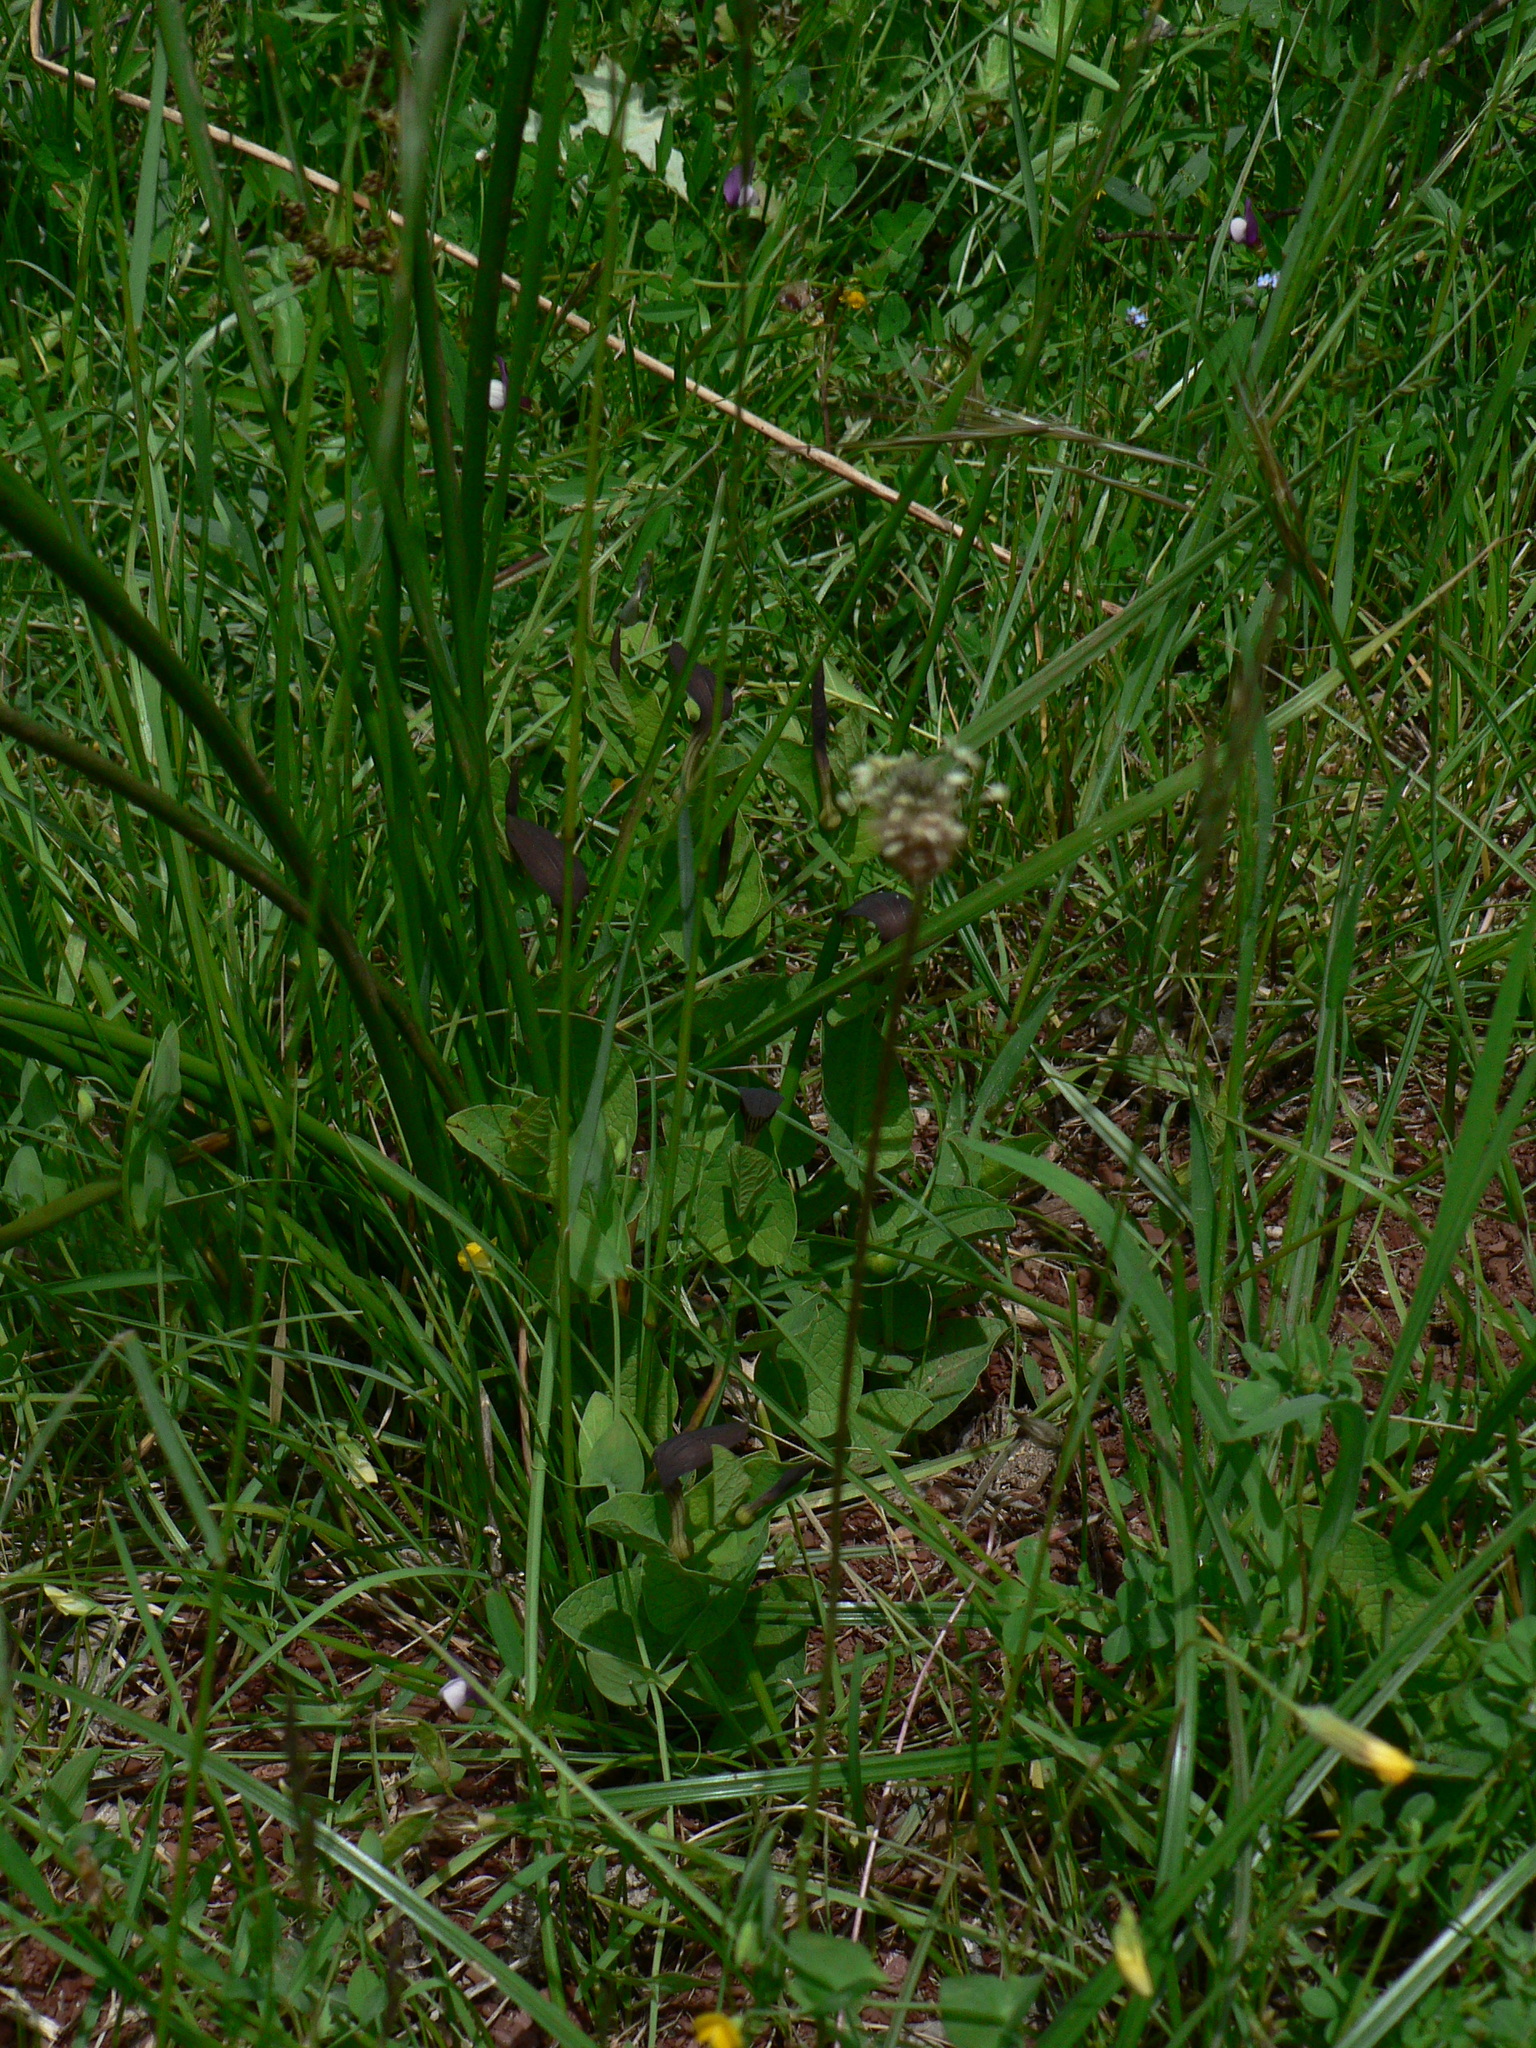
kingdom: Plantae
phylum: Tracheophyta
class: Magnoliopsida
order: Piperales
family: Aristolochiaceae
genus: Aristolochia
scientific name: Aristolochia rotunda
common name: Smearwort
